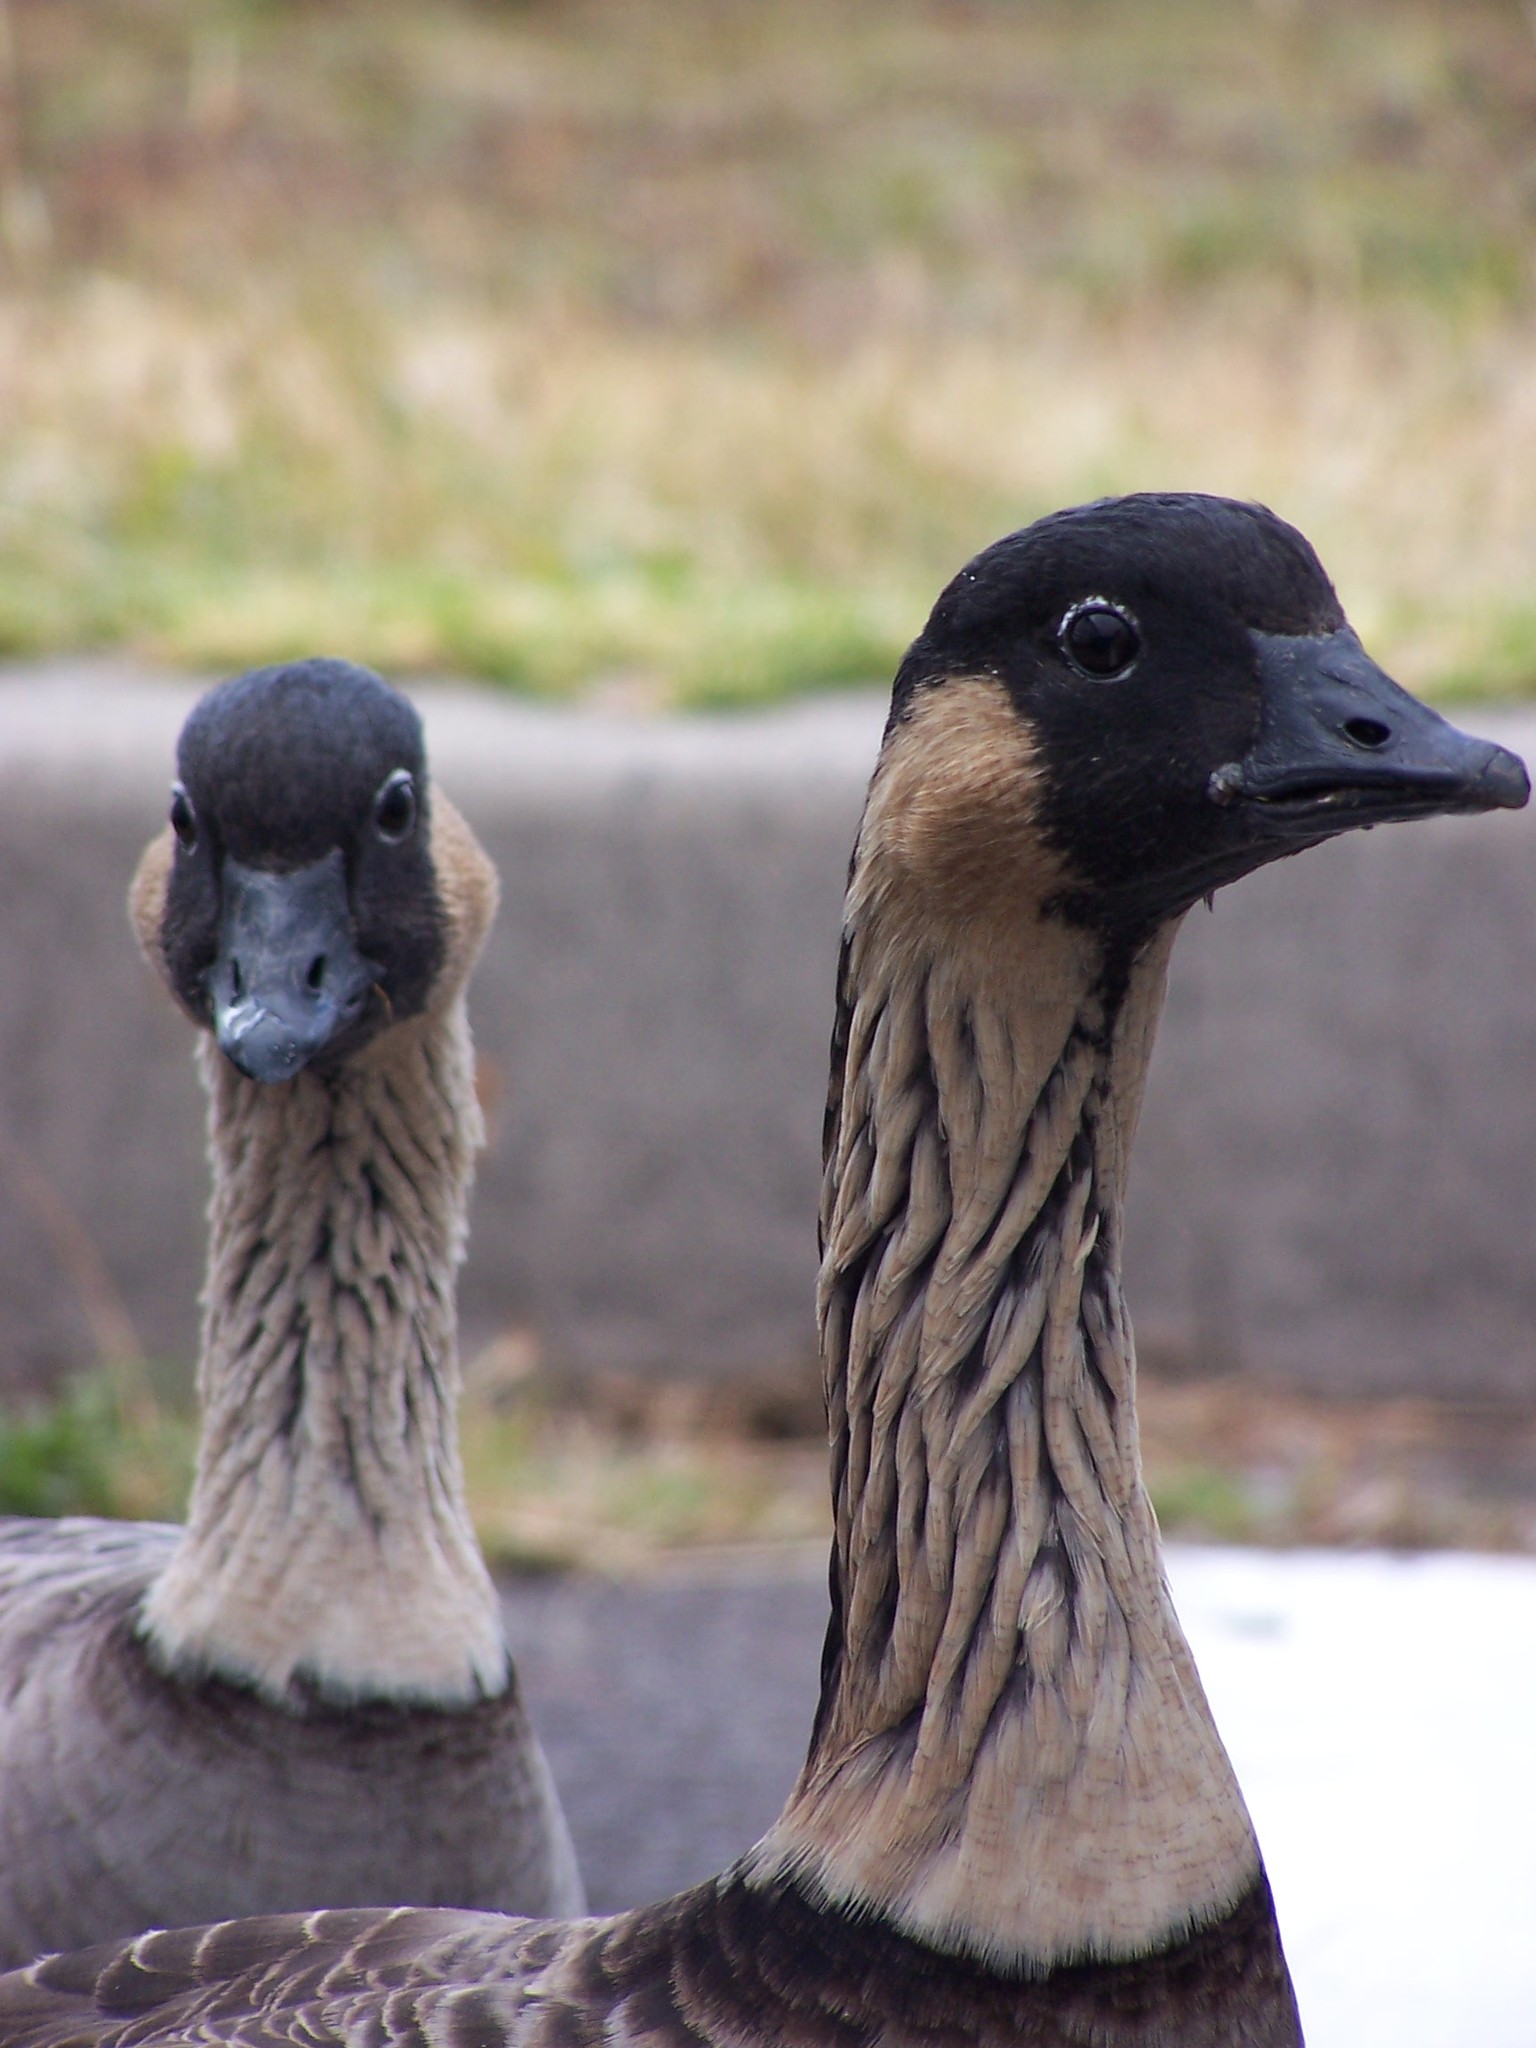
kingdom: Animalia
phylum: Chordata
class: Aves
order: Anseriformes
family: Anatidae
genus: Branta
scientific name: Branta sandvicensis
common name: Nene
